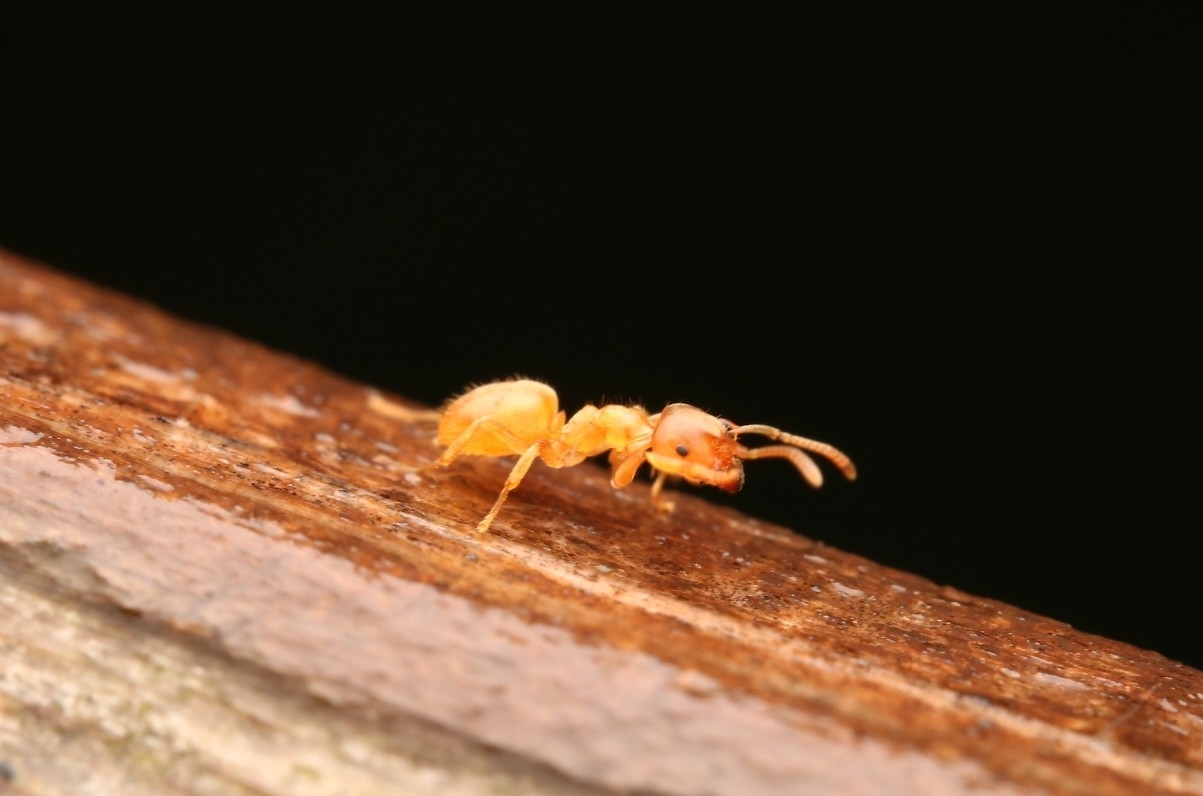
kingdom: Animalia
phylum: Arthropoda
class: Insecta
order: Hymenoptera
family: Formicidae
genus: Lasius
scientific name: Lasius flavus
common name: Blond field ant
